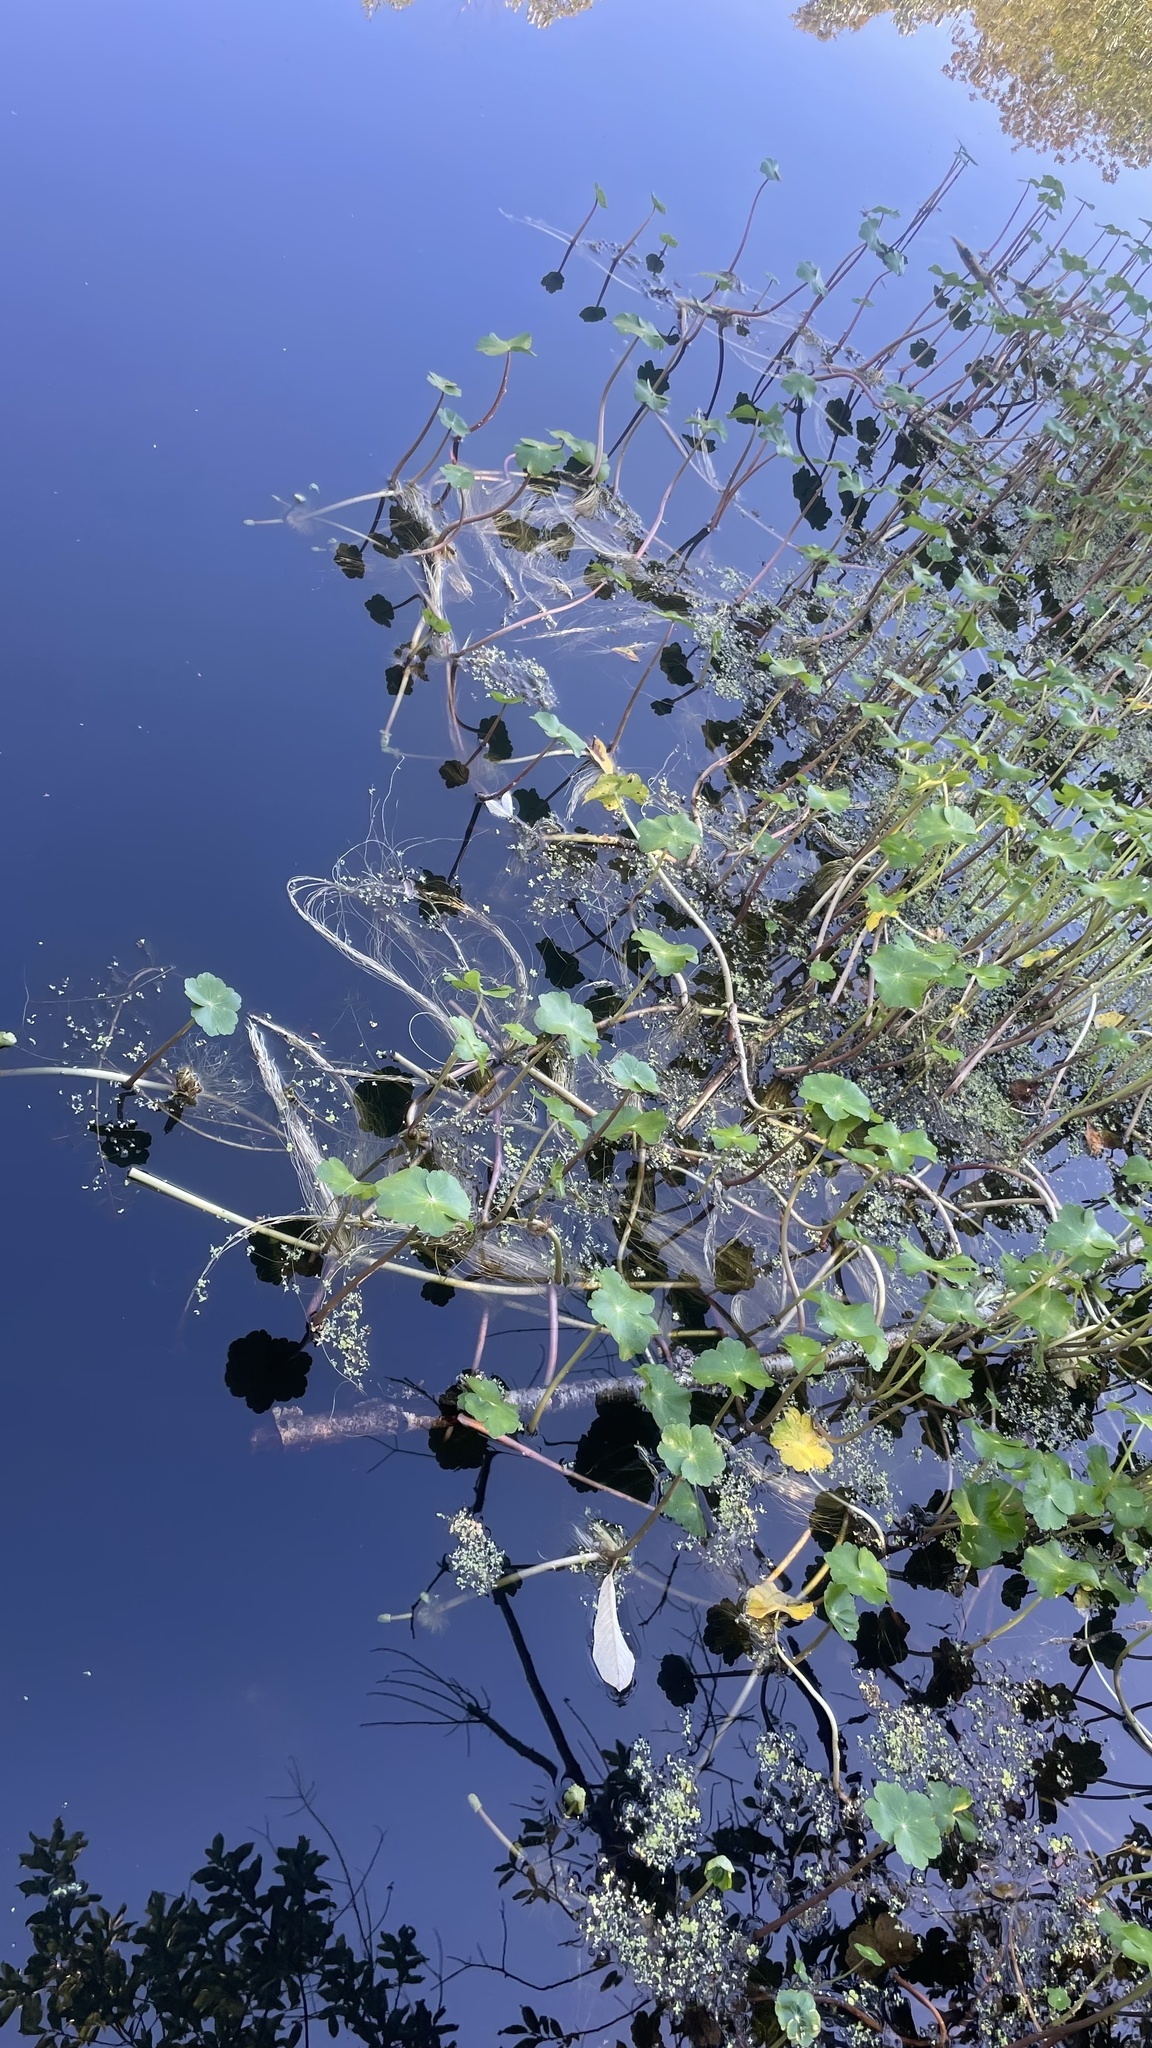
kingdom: Plantae
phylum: Tracheophyta
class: Magnoliopsida
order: Apiales
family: Araliaceae
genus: Hydrocotyle
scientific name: Hydrocotyle ranunculoides
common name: Floating pennywort
